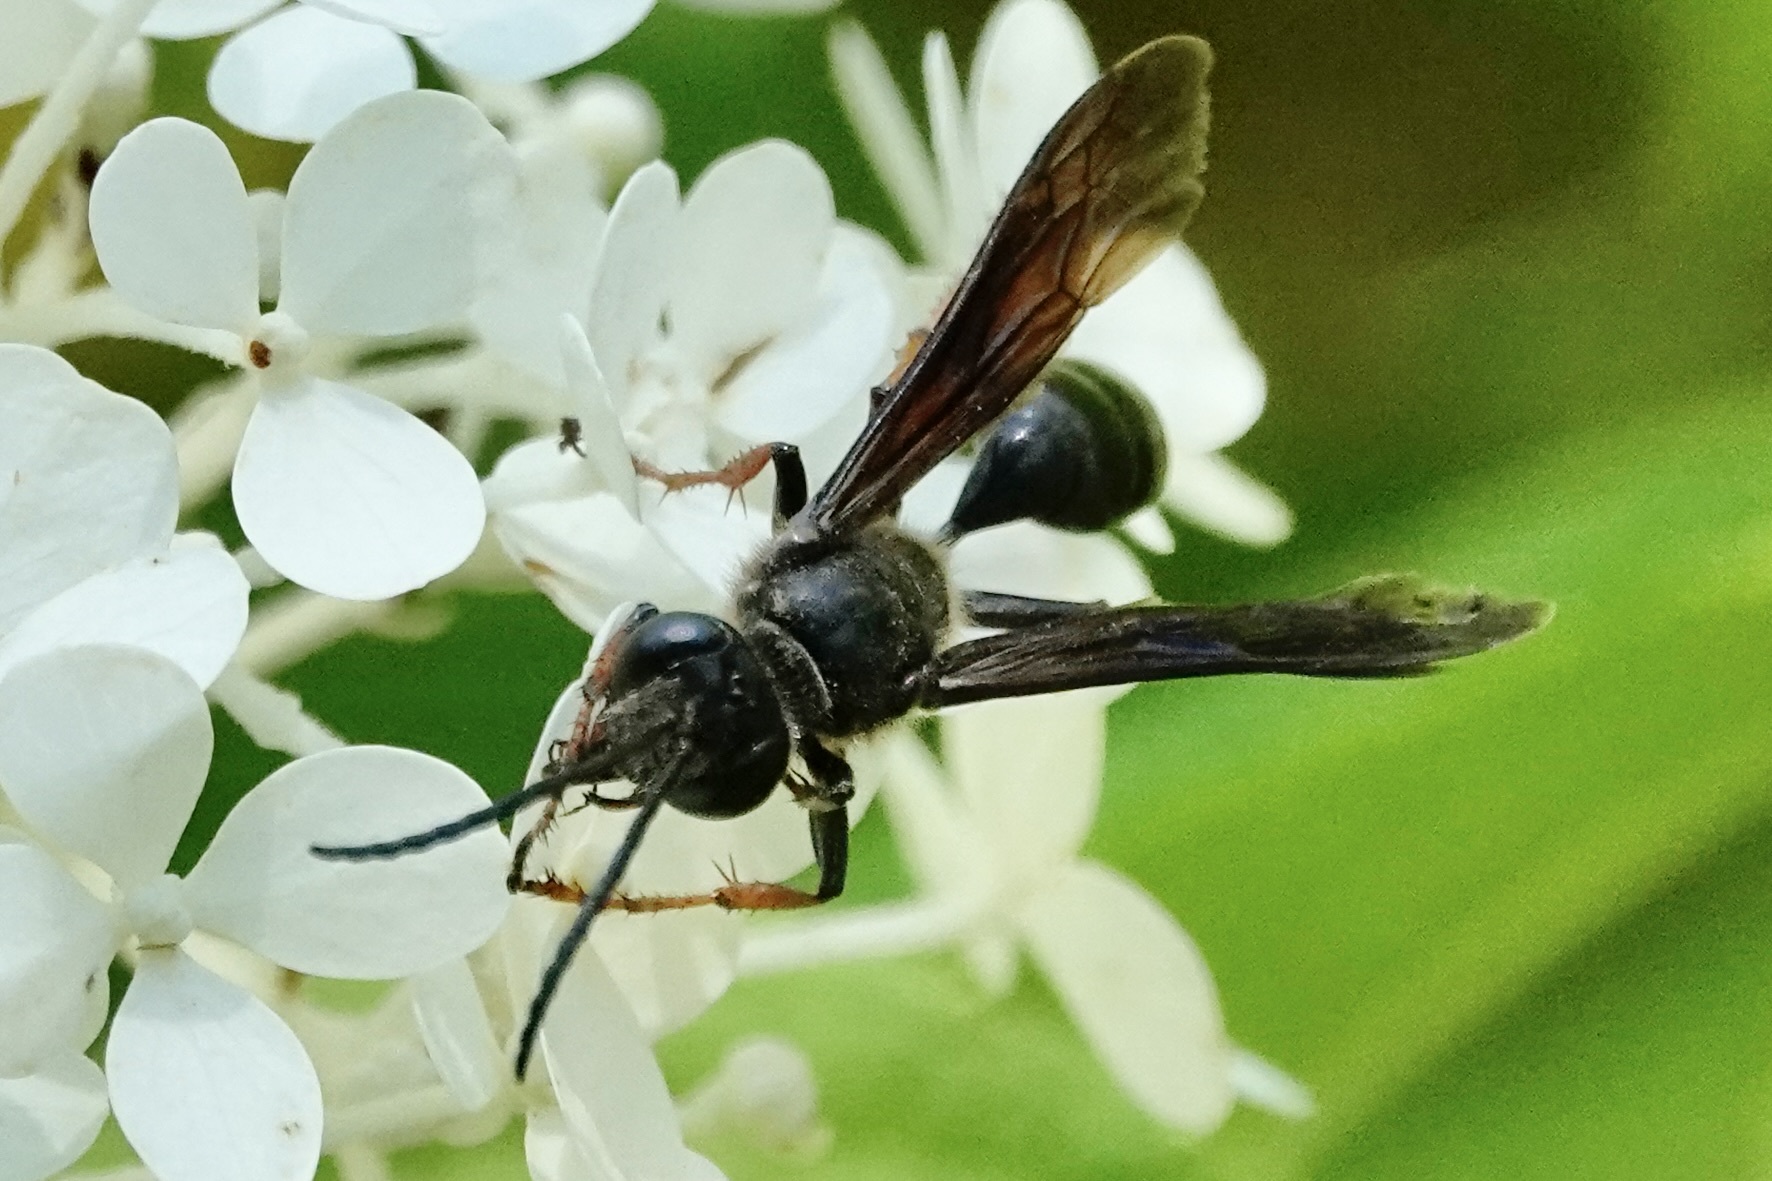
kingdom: Animalia
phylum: Arthropoda
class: Insecta
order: Hymenoptera
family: Sphecidae
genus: Isodontia
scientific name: Isodontia auripes
